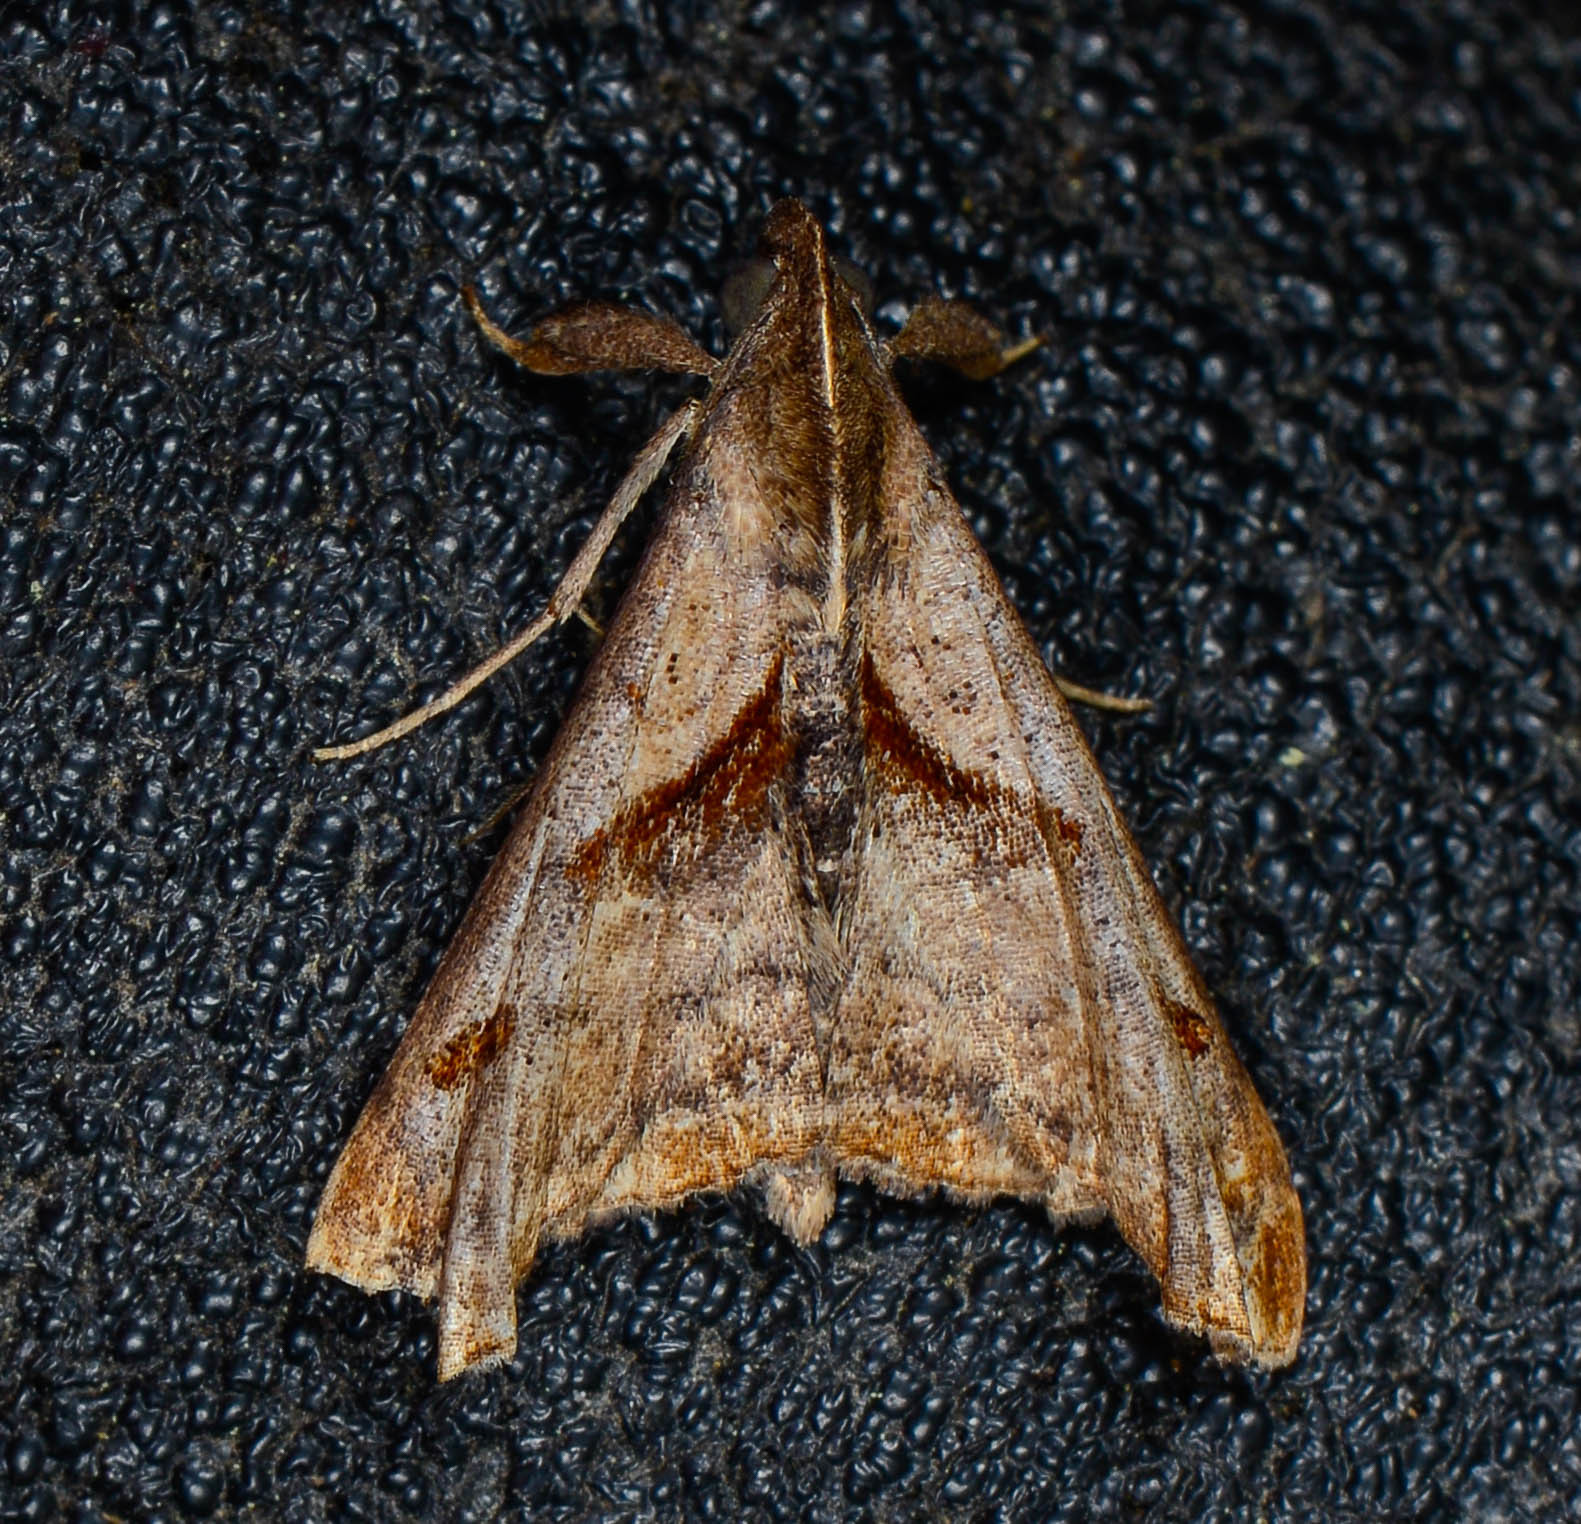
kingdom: Animalia
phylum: Arthropoda
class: Insecta
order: Lepidoptera
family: Erebidae
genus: Palthis
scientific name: Palthis angulalis
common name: Dark-spotted palthis moth
